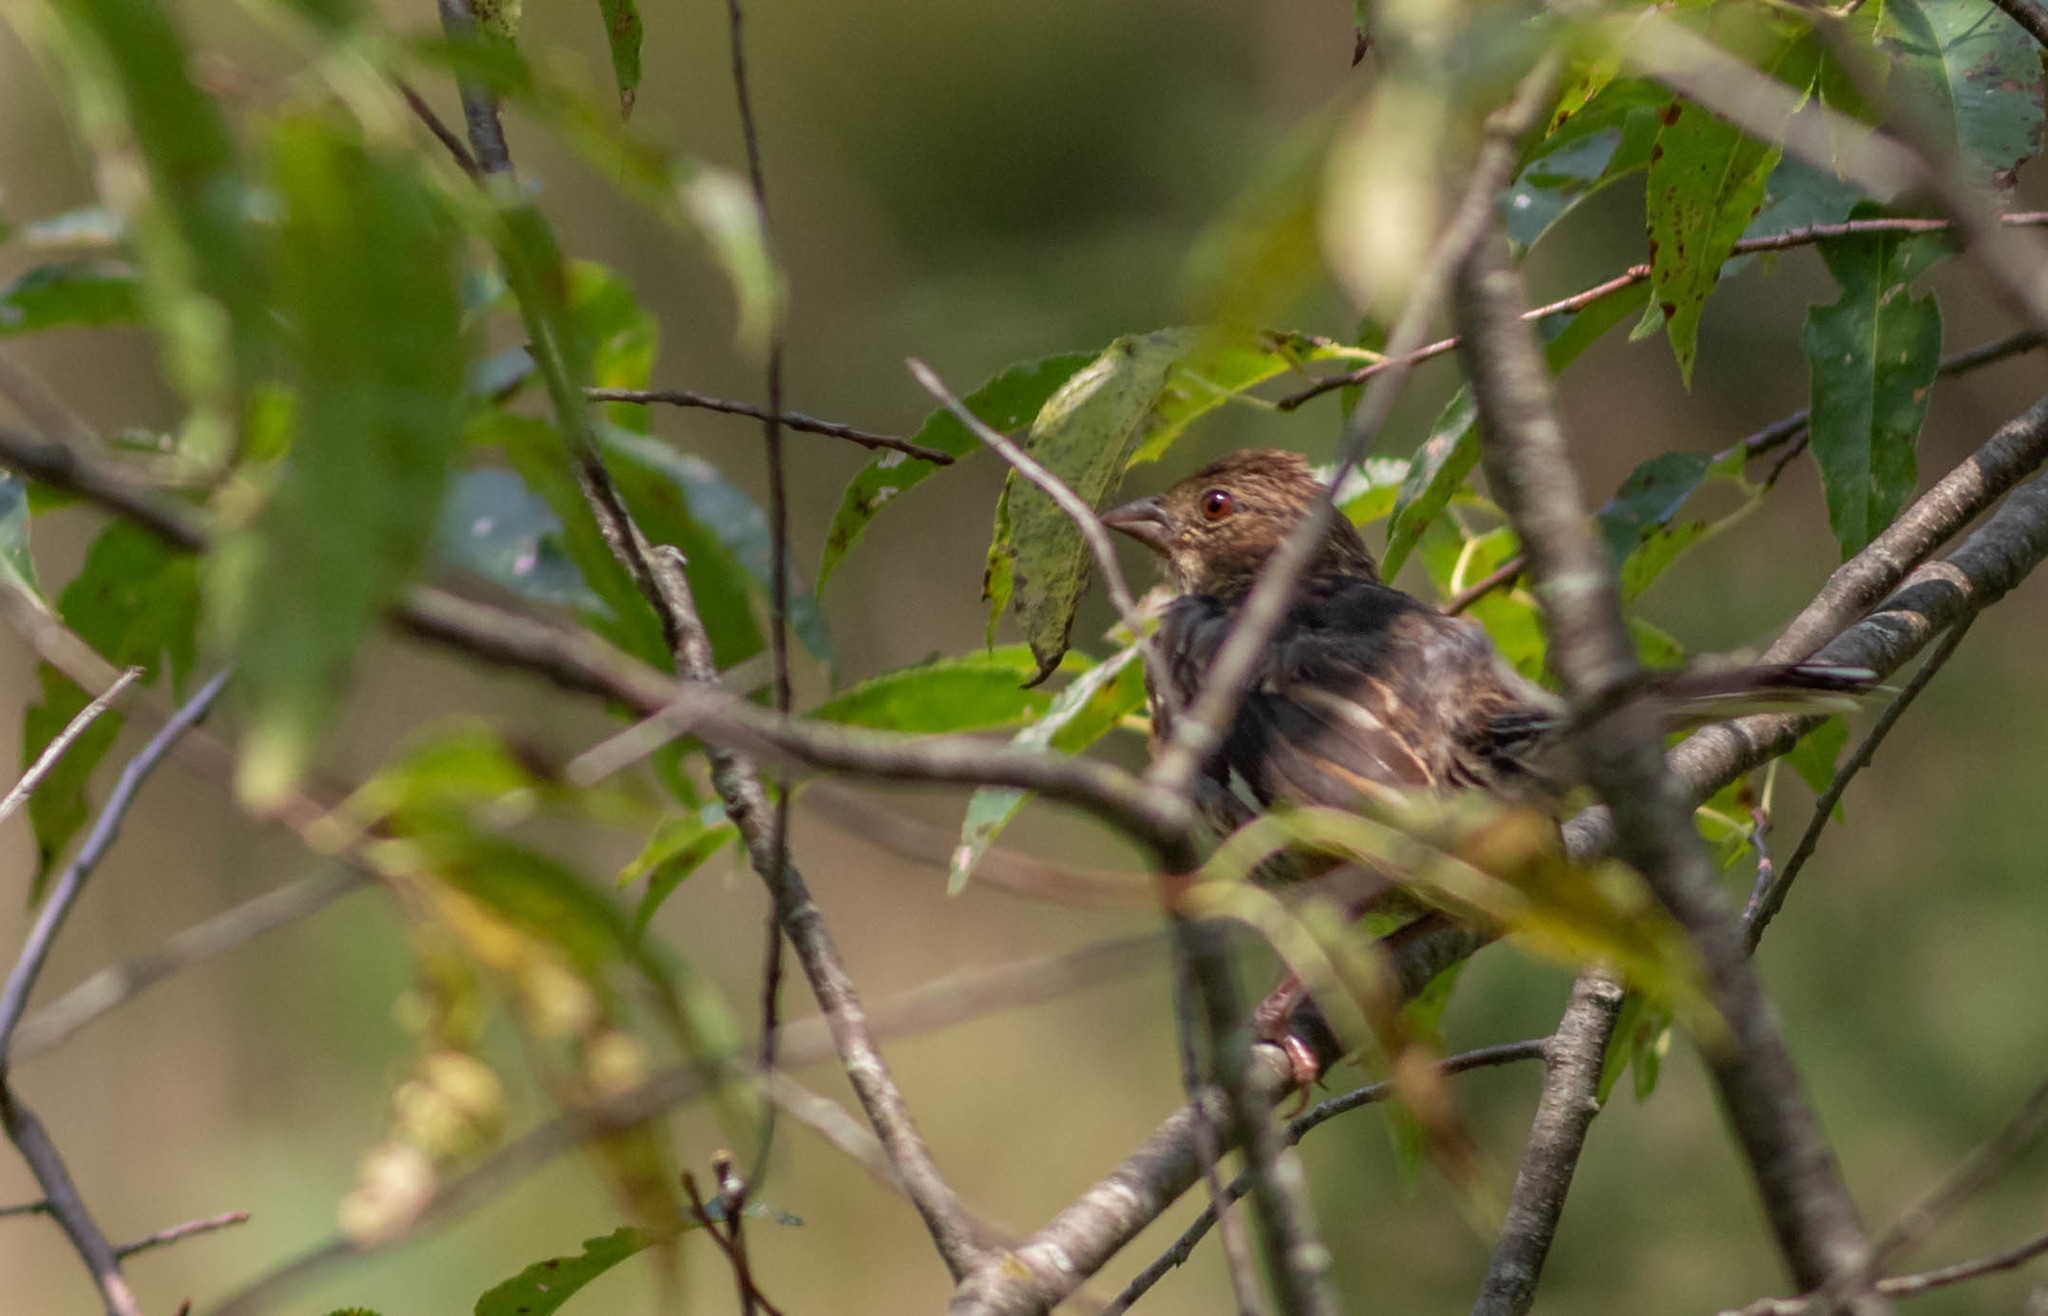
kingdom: Animalia
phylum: Chordata
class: Aves
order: Passeriformes
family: Passerellidae
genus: Pipilo
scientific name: Pipilo erythrophthalmus
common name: Eastern towhee
